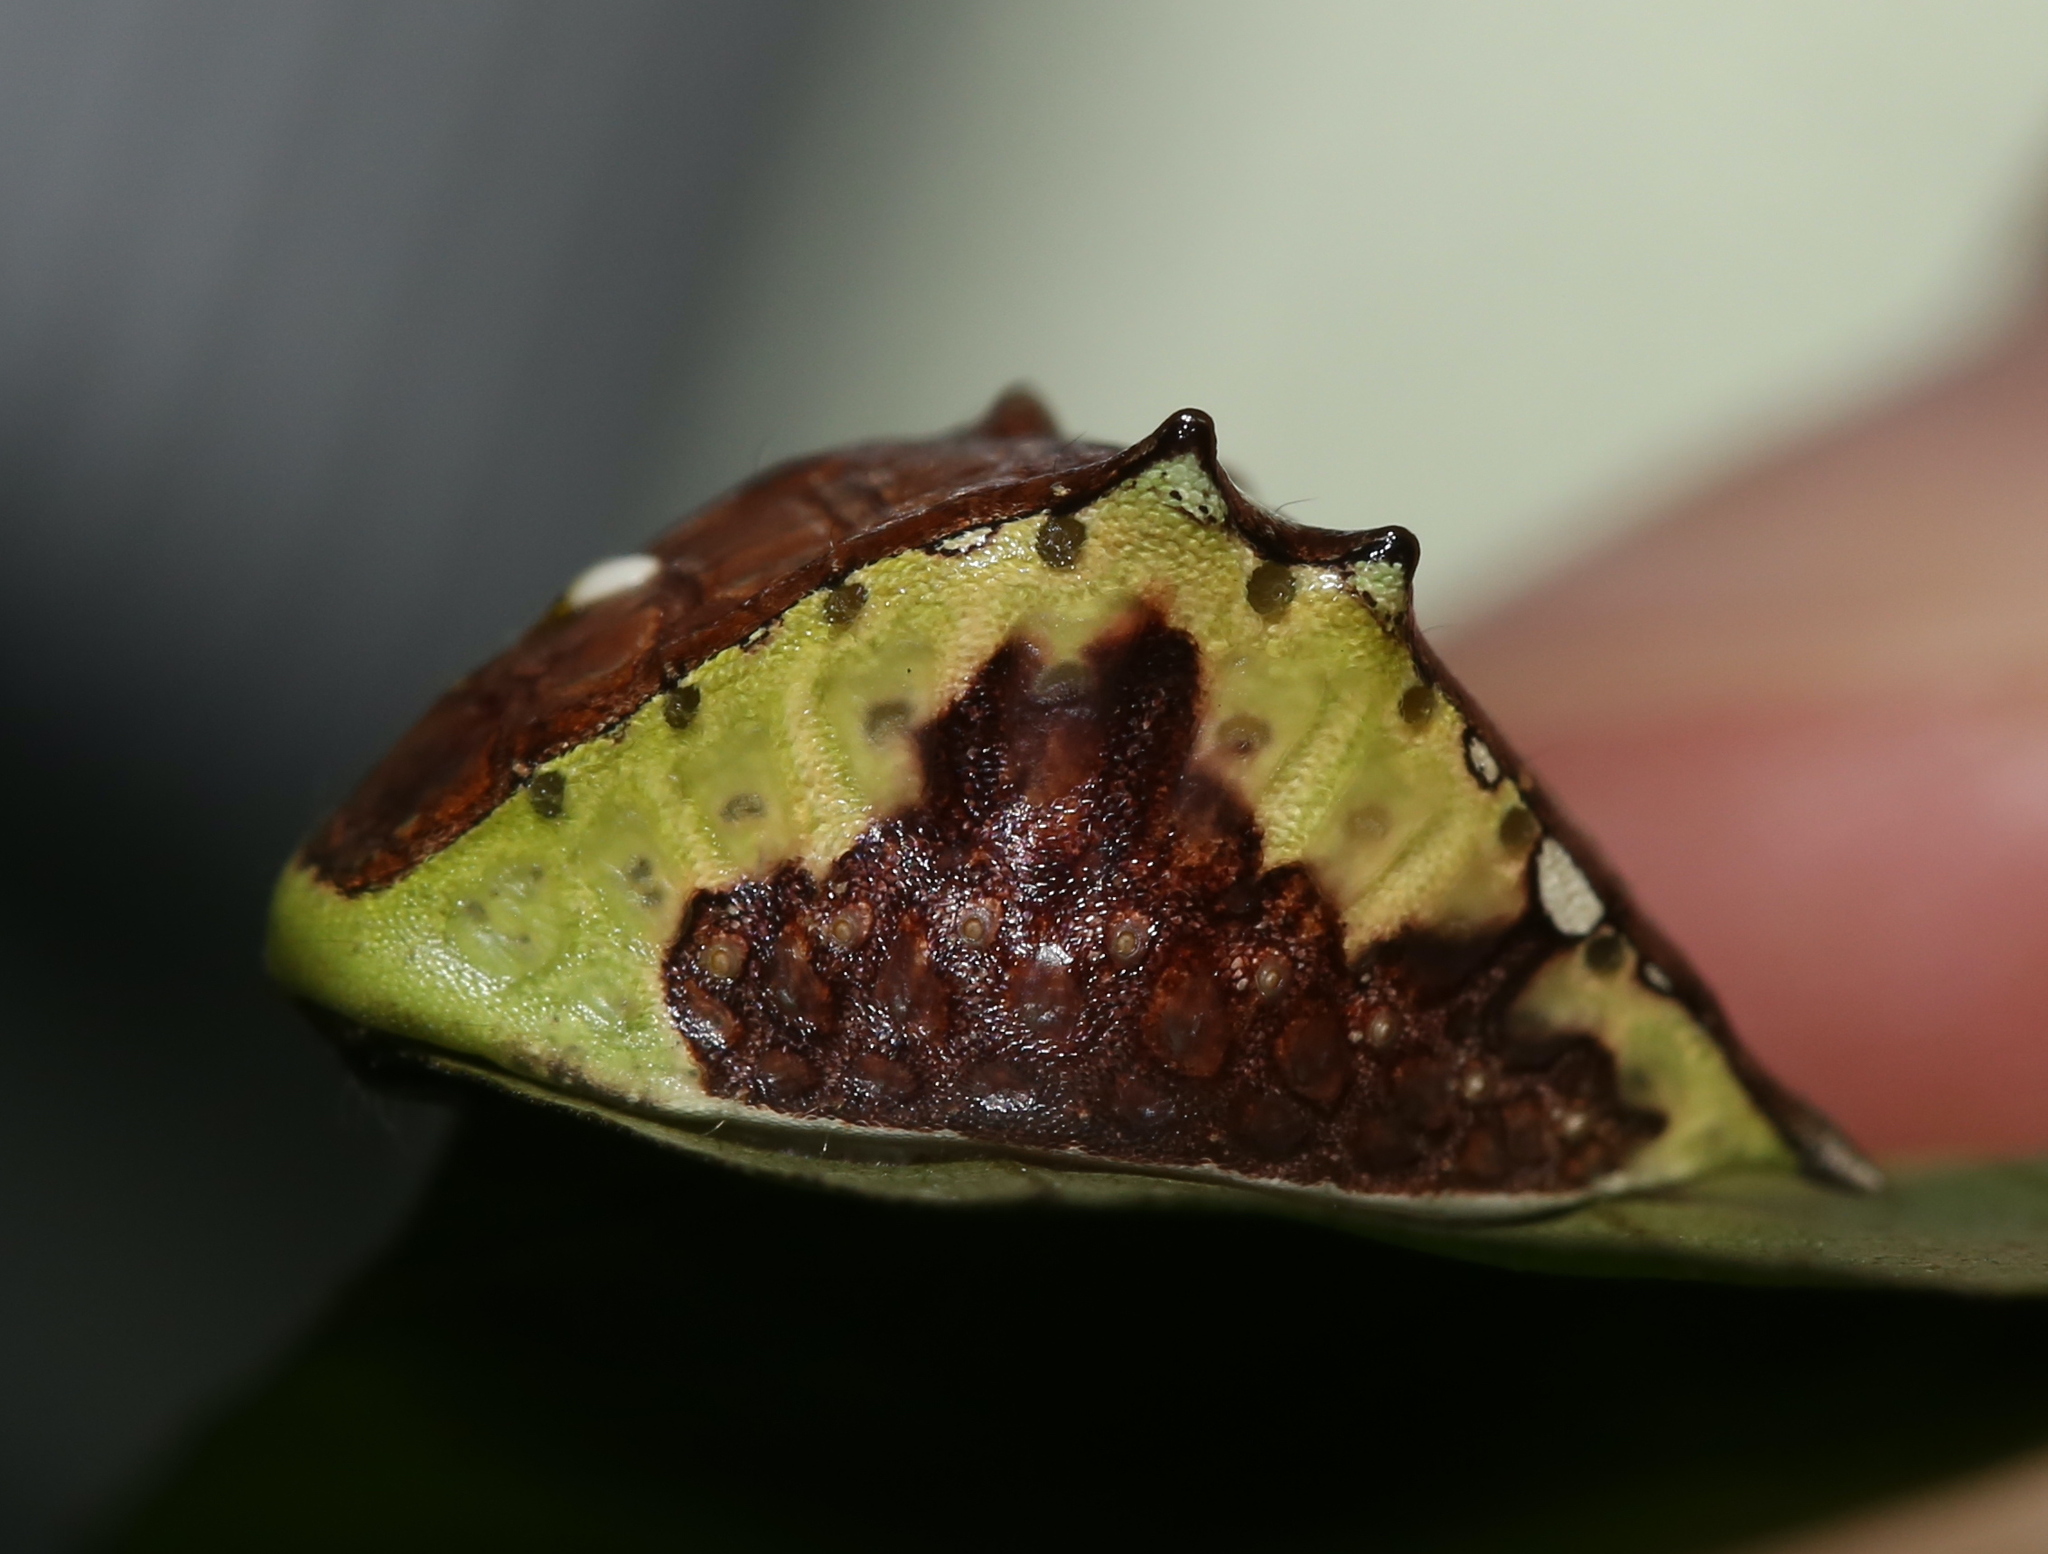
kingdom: Animalia
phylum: Arthropoda
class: Insecta
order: Lepidoptera
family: Limacodidae
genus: Prolimacodes
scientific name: Prolimacodes badia
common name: Skiff moth
